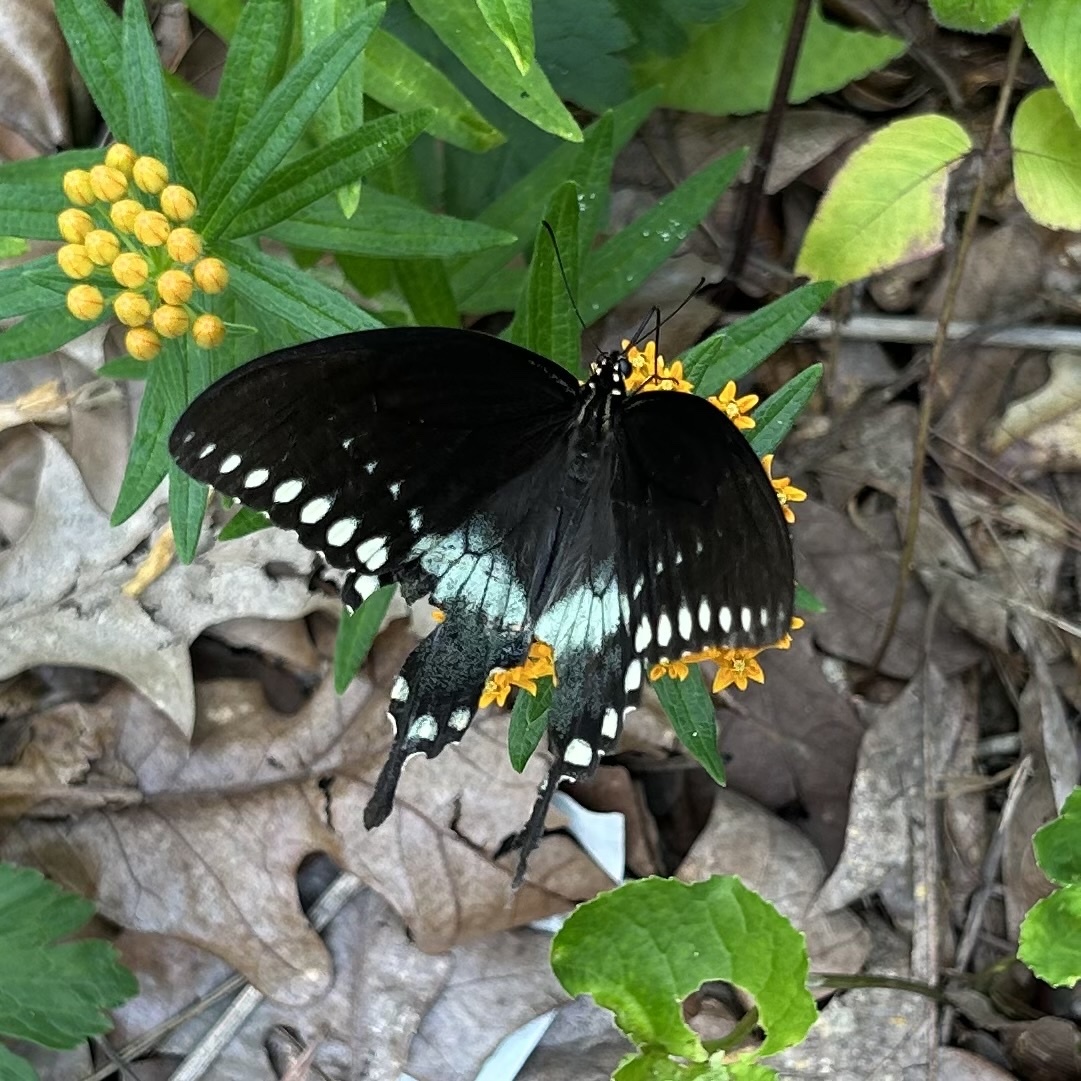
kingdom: Animalia
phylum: Arthropoda
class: Insecta
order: Lepidoptera
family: Papilionidae
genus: Papilio
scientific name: Papilio troilus
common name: Spicebush swallowtail
